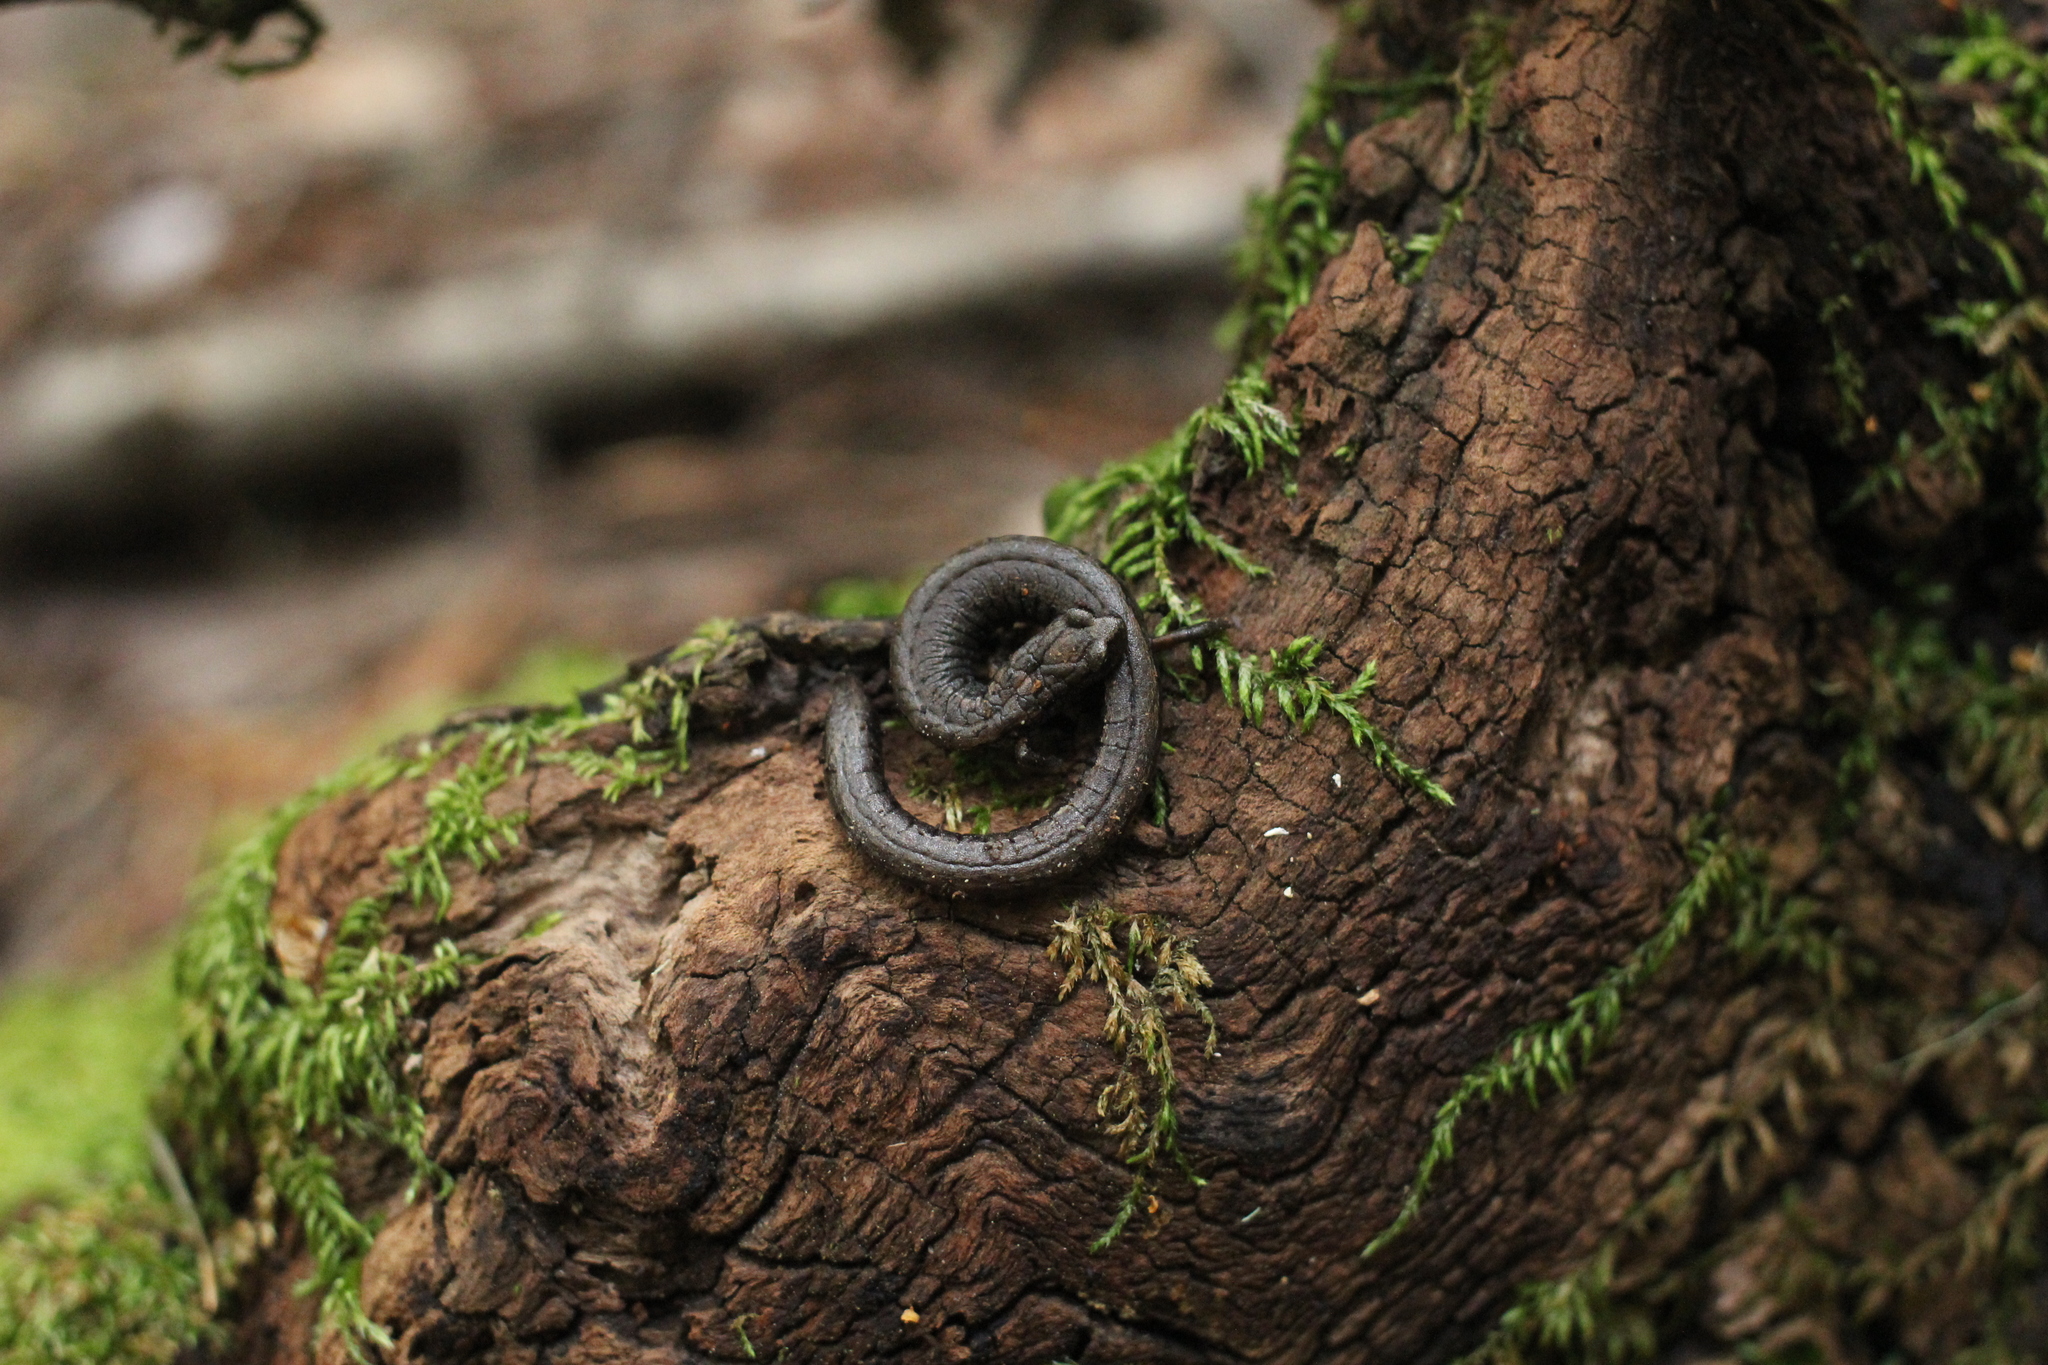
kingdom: Animalia
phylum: Chordata
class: Amphibia
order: Caudata
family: Plethodontidae
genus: Batrachoseps
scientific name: Batrachoseps attenuatus
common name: California slender salamander
